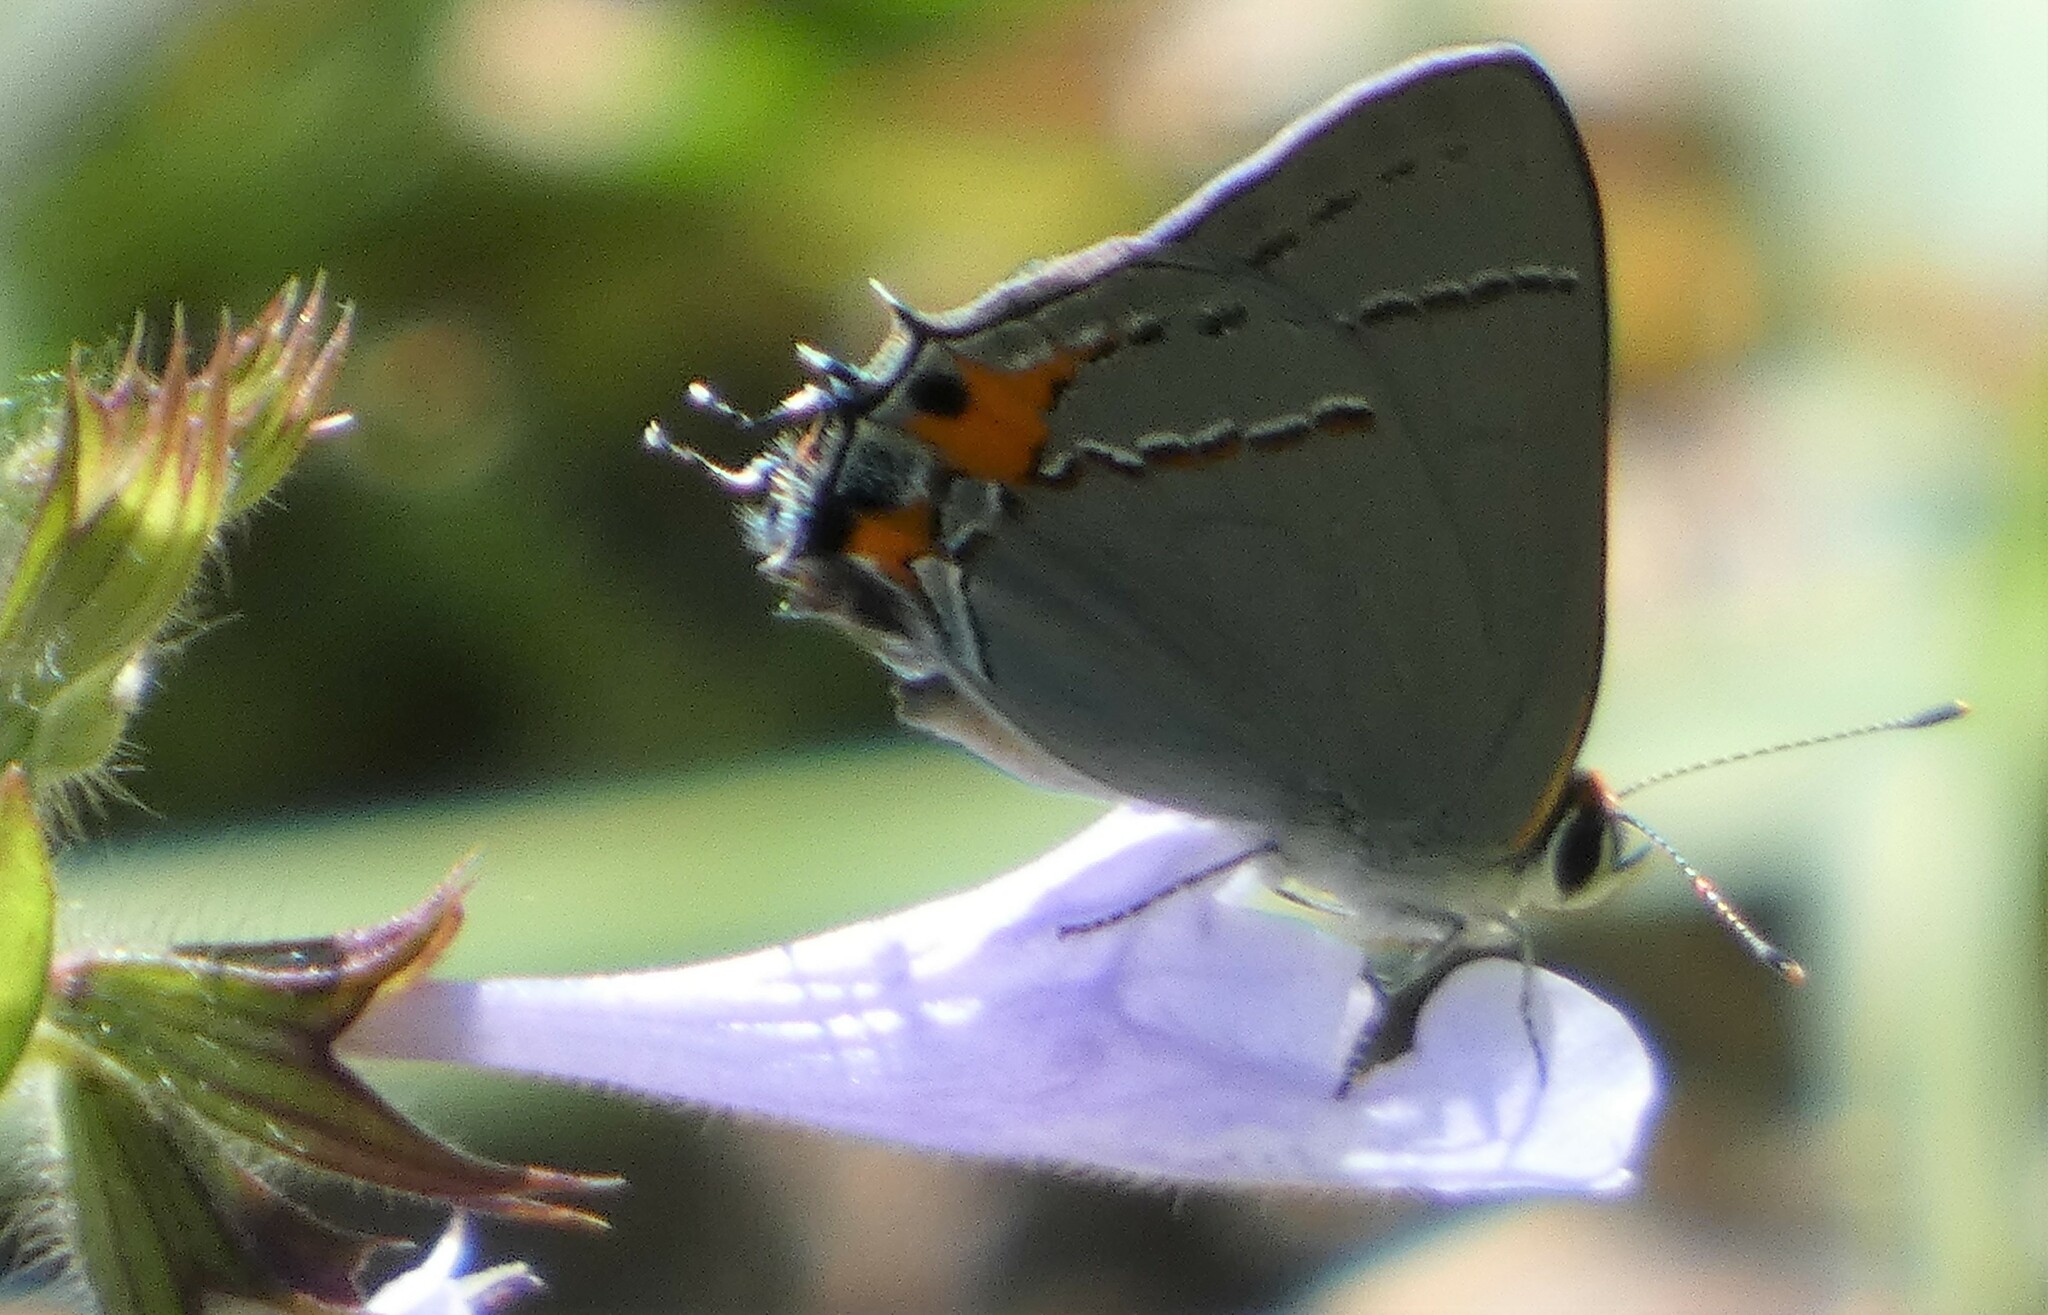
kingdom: Animalia
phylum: Arthropoda
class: Insecta
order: Lepidoptera
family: Lycaenidae
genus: Strymon
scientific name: Strymon melinus
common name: Gray hairstreak
